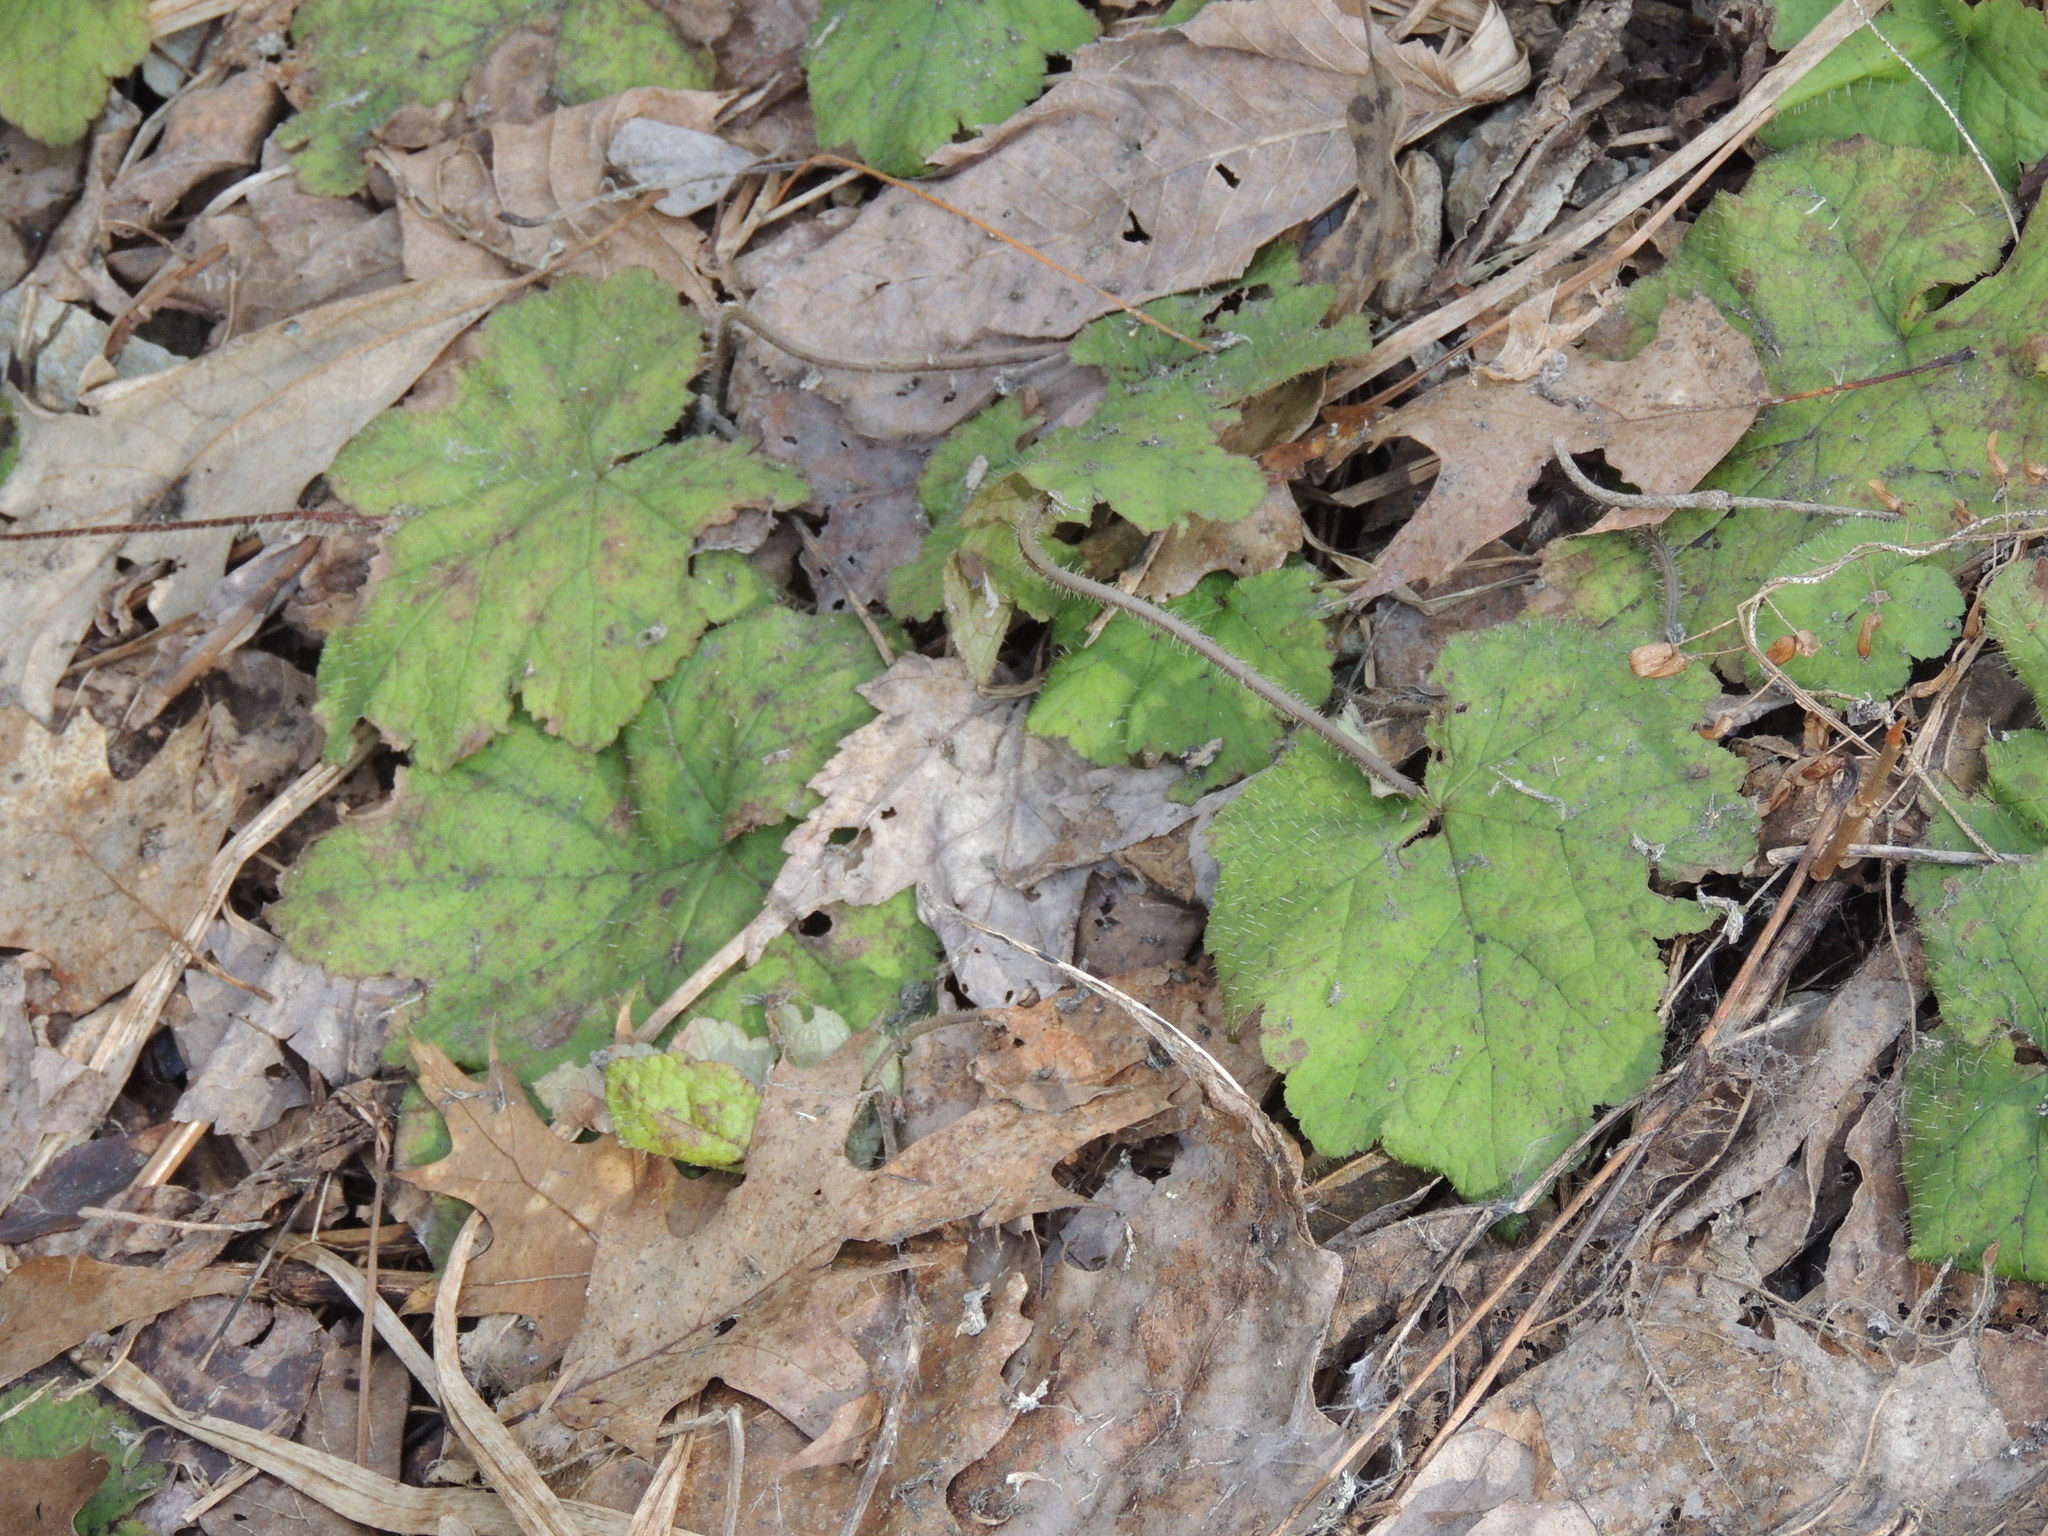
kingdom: Plantae
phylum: Tracheophyta
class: Magnoliopsida
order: Saxifragales
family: Saxifragaceae
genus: Tiarella
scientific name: Tiarella stolonifera
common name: Stoloniferous foamflower
